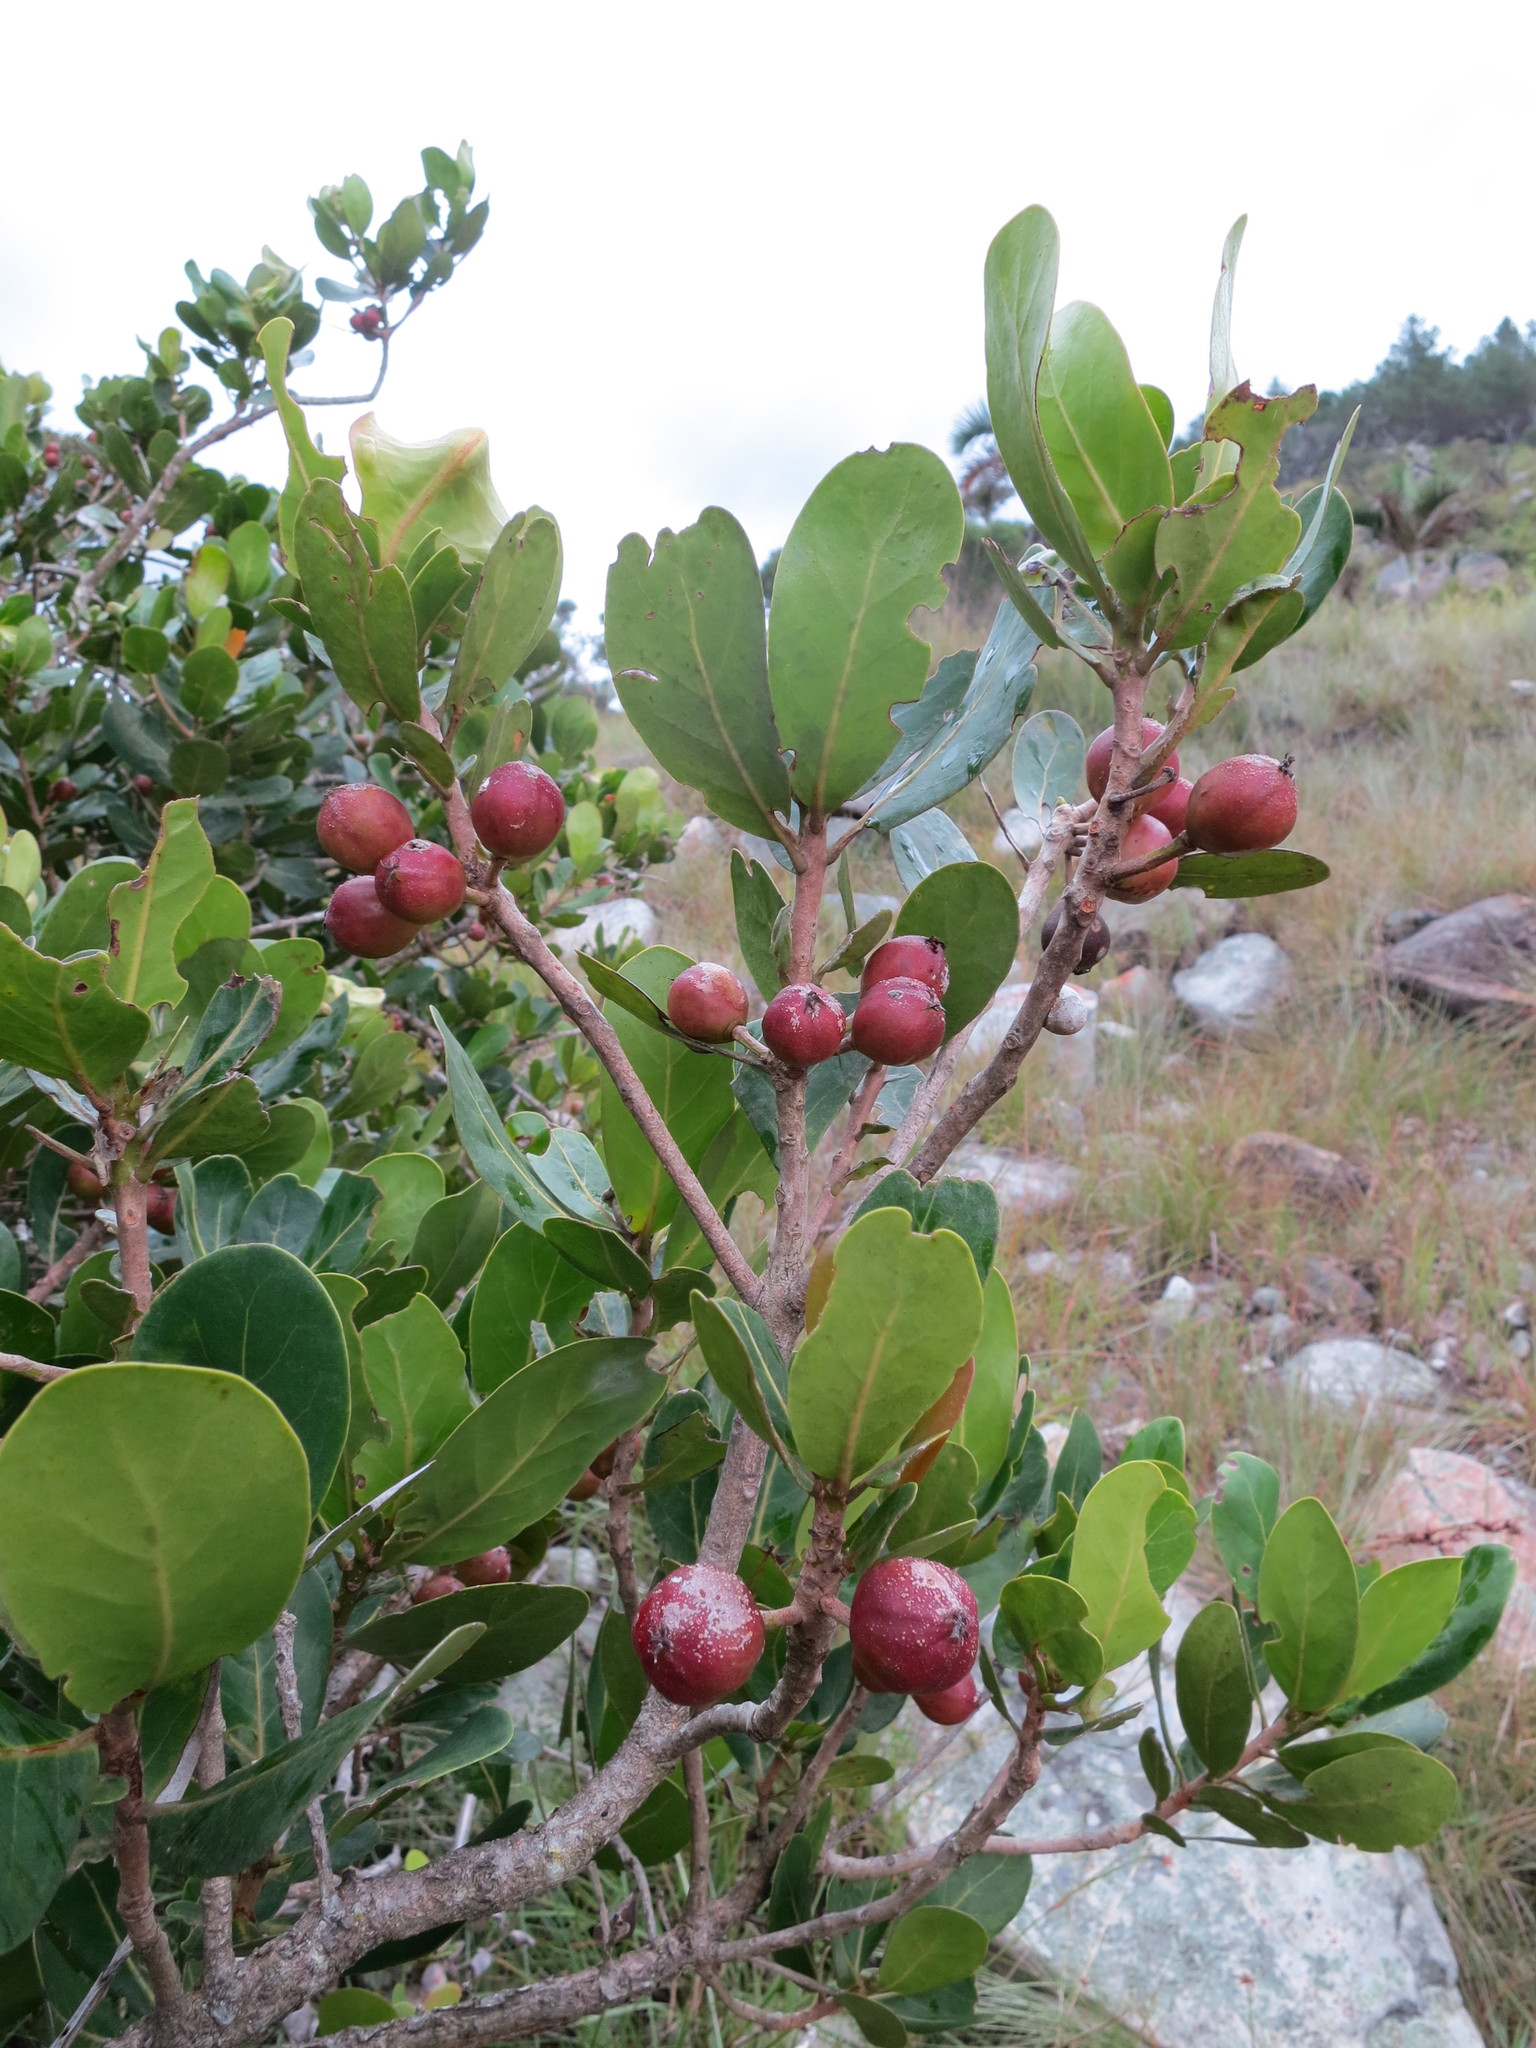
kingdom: Plantae
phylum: Tracheophyta
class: Magnoliopsida
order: Malpighiales
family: Phyllanthaceae
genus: Uapaca
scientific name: Uapaca bojeri
